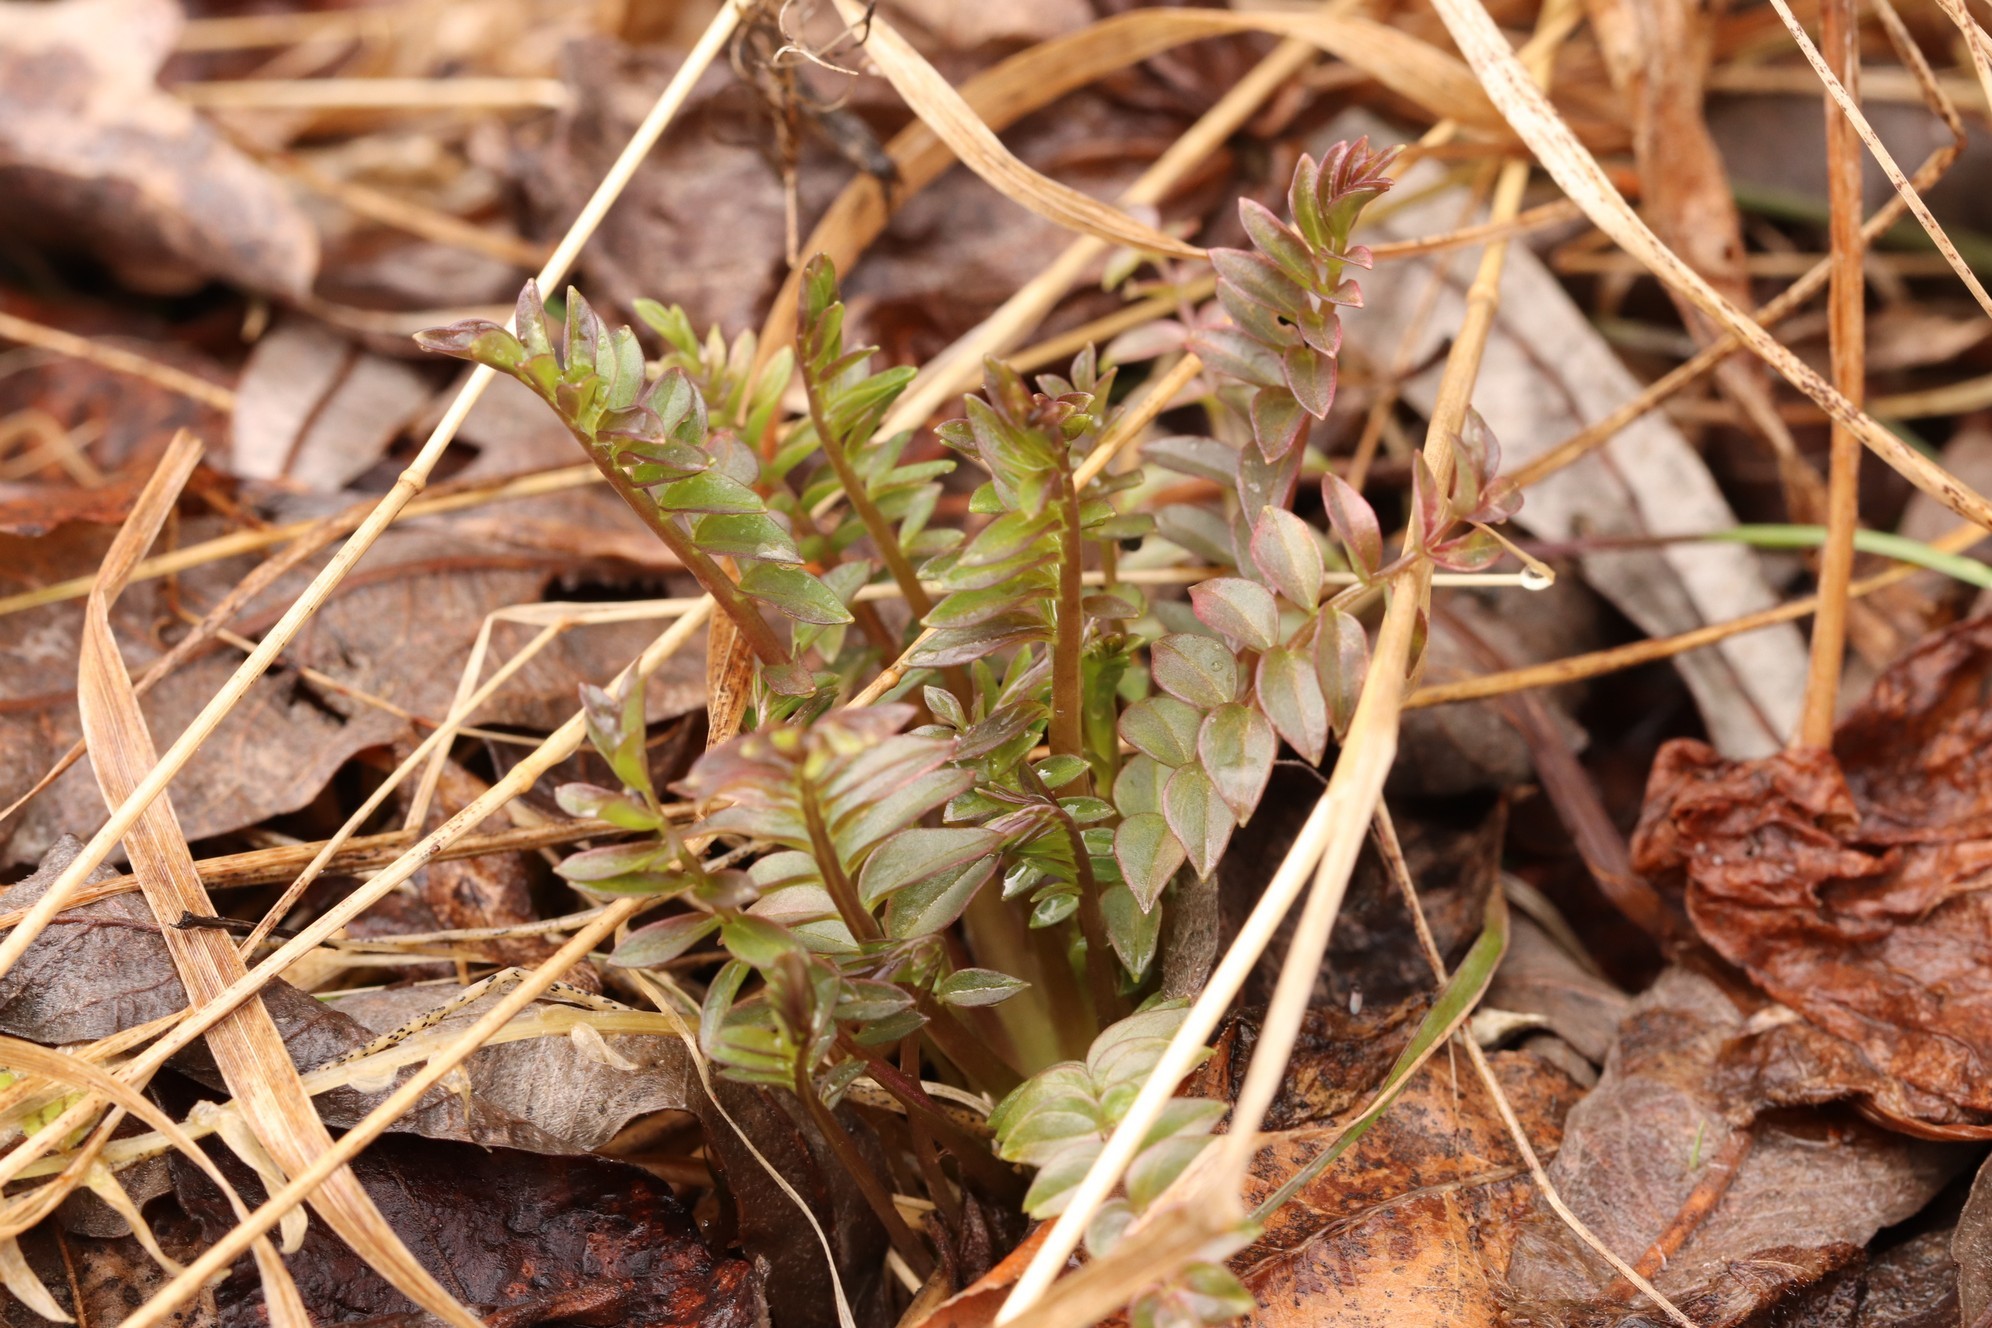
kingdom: Plantae
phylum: Tracheophyta
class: Magnoliopsida
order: Ericales
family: Polemoniaceae
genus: Polemonium
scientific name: Polemonium caeruleum
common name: Jacob's-ladder
